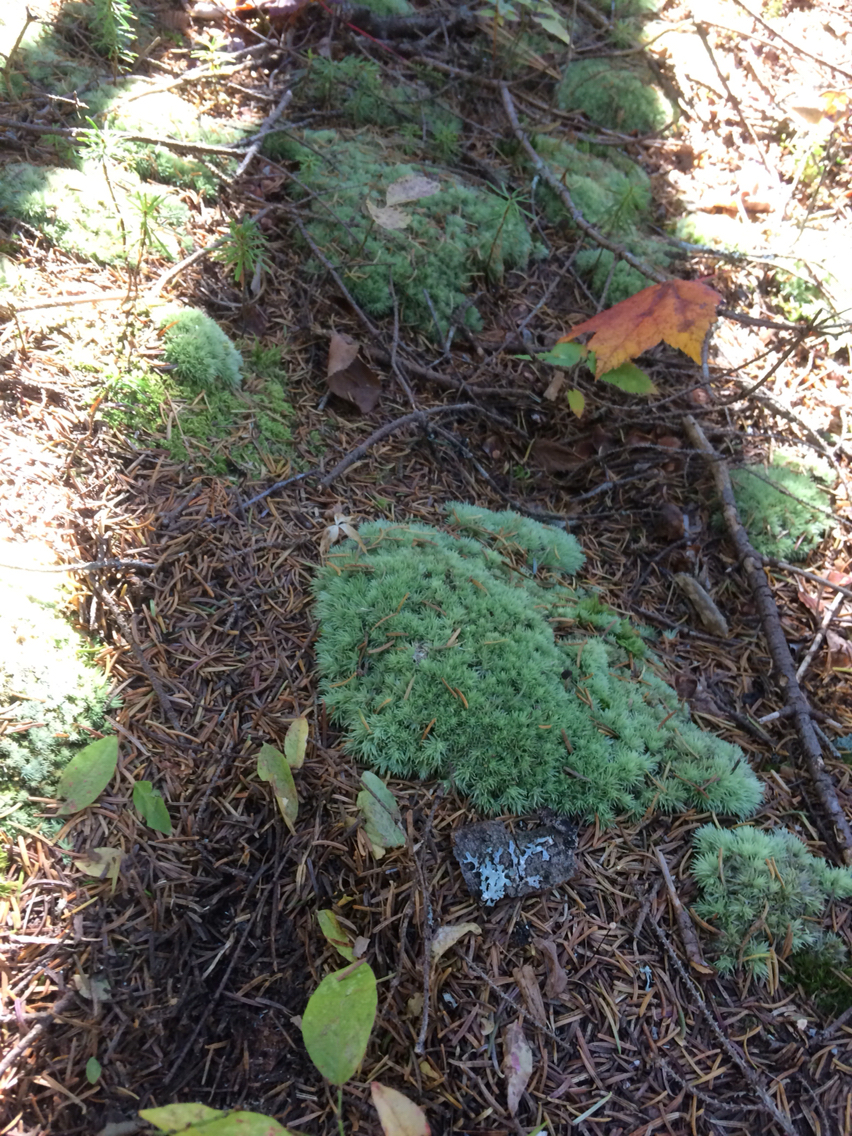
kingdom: Plantae
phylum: Bryophyta
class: Bryopsida
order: Dicranales
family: Leucobryaceae
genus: Leucobryum
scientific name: Leucobryum glaucum
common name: Large white-moss
